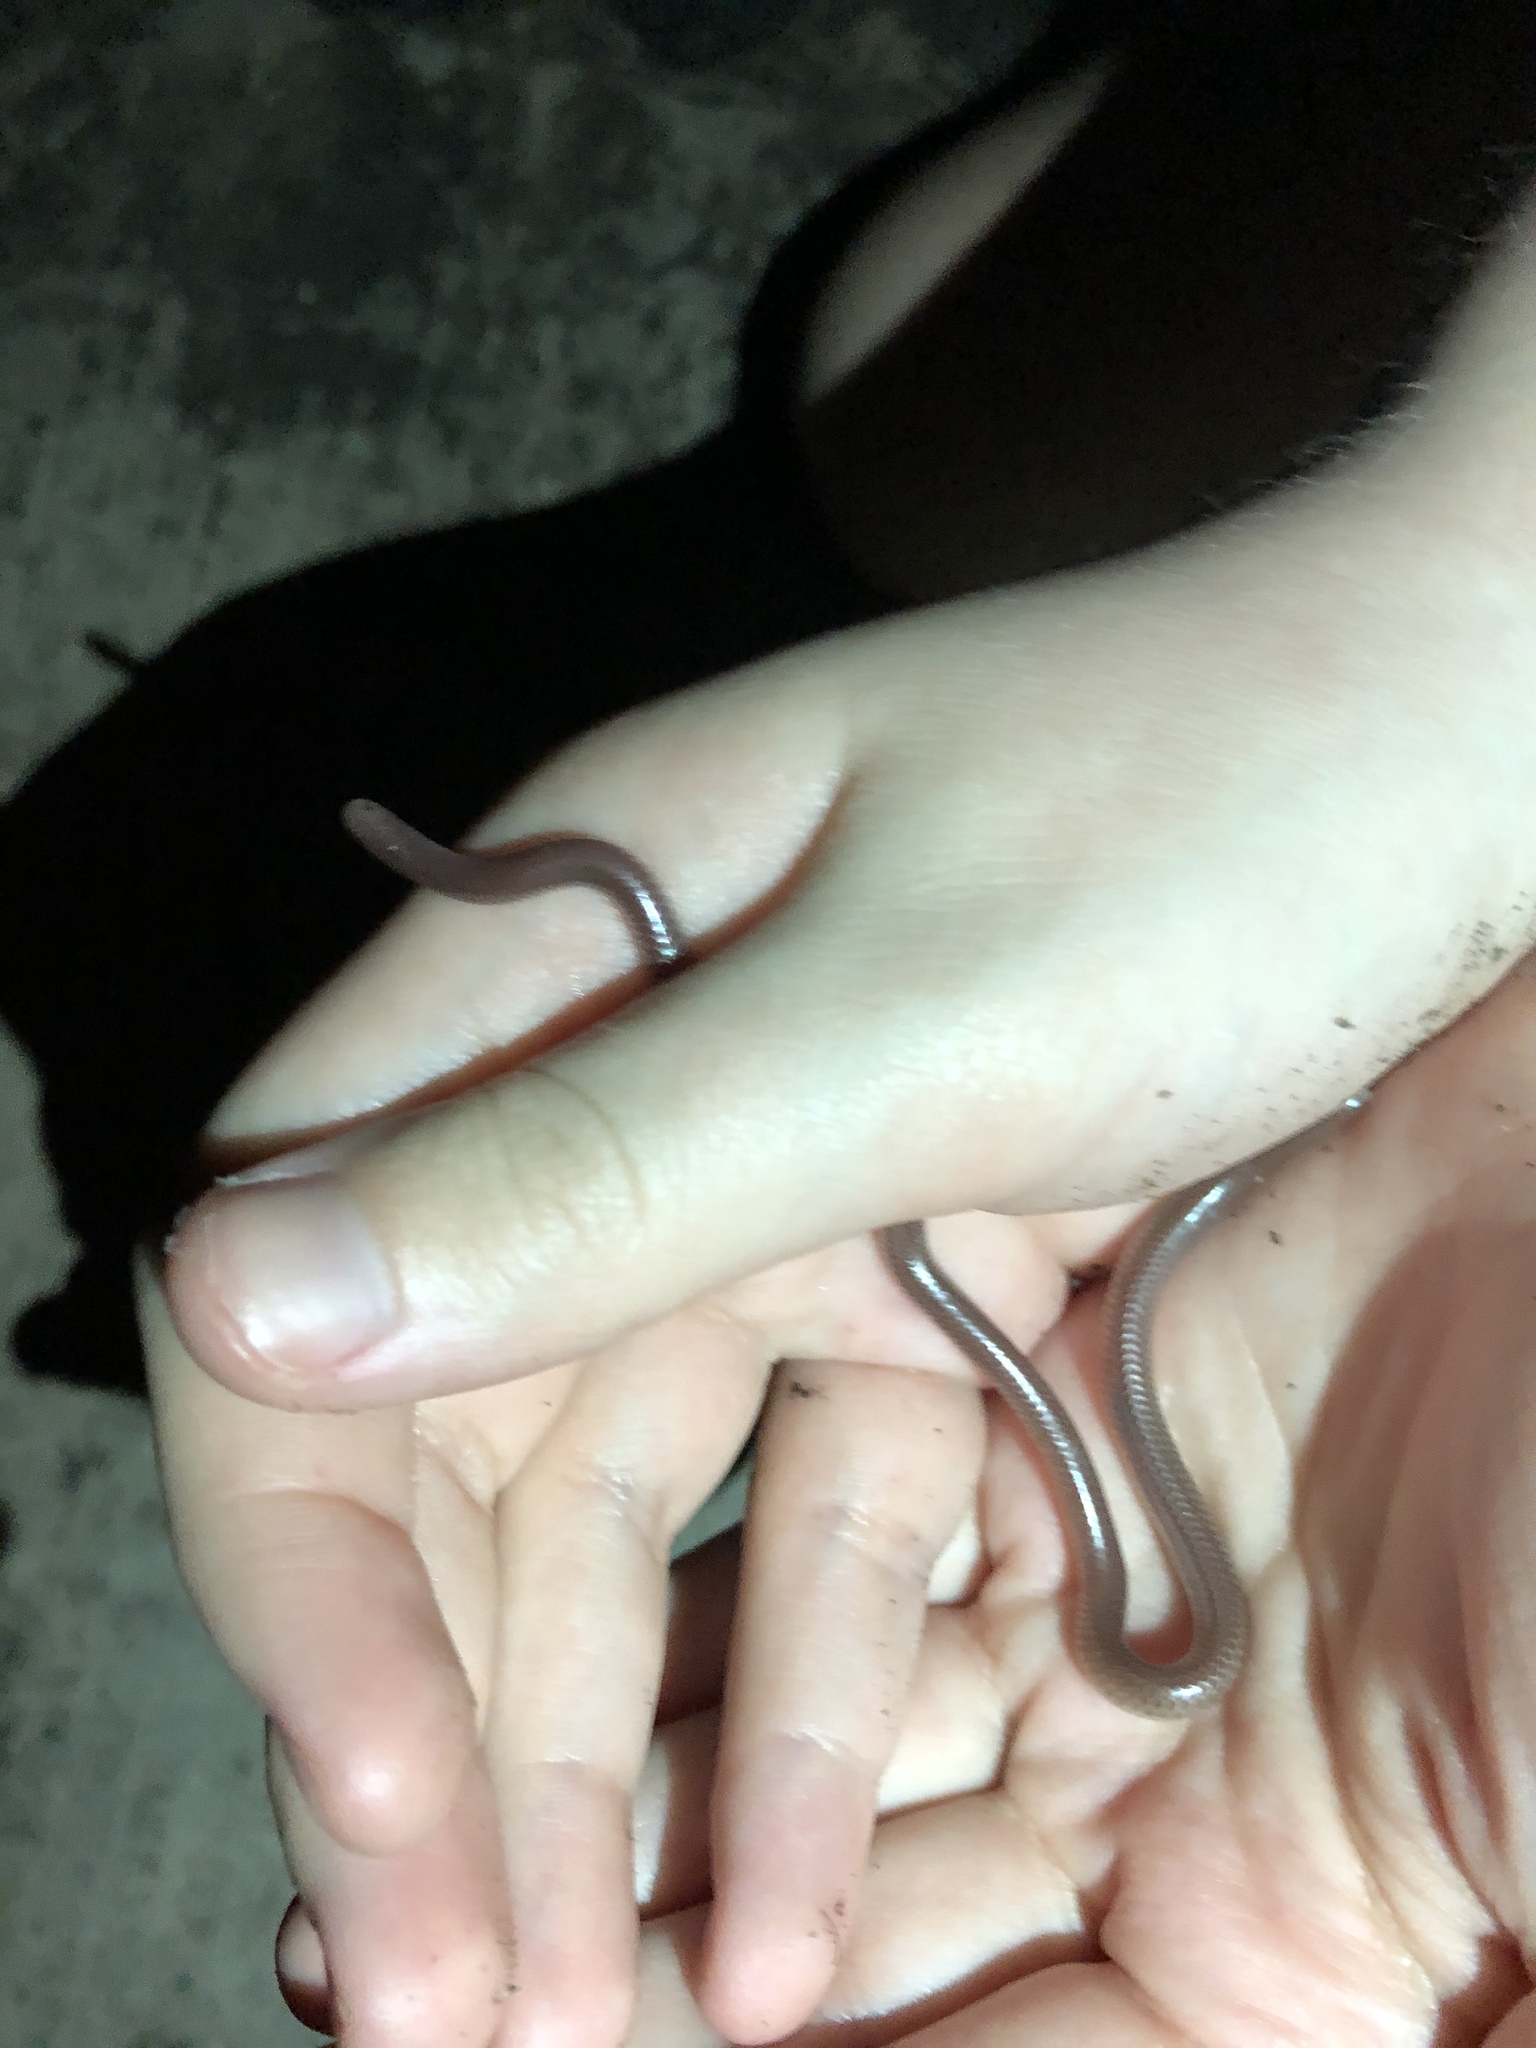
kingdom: Animalia
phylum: Chordata
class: Squamata
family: Leptotyphlopidae
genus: Rena
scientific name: Rena dulcis
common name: Texas blind snake
